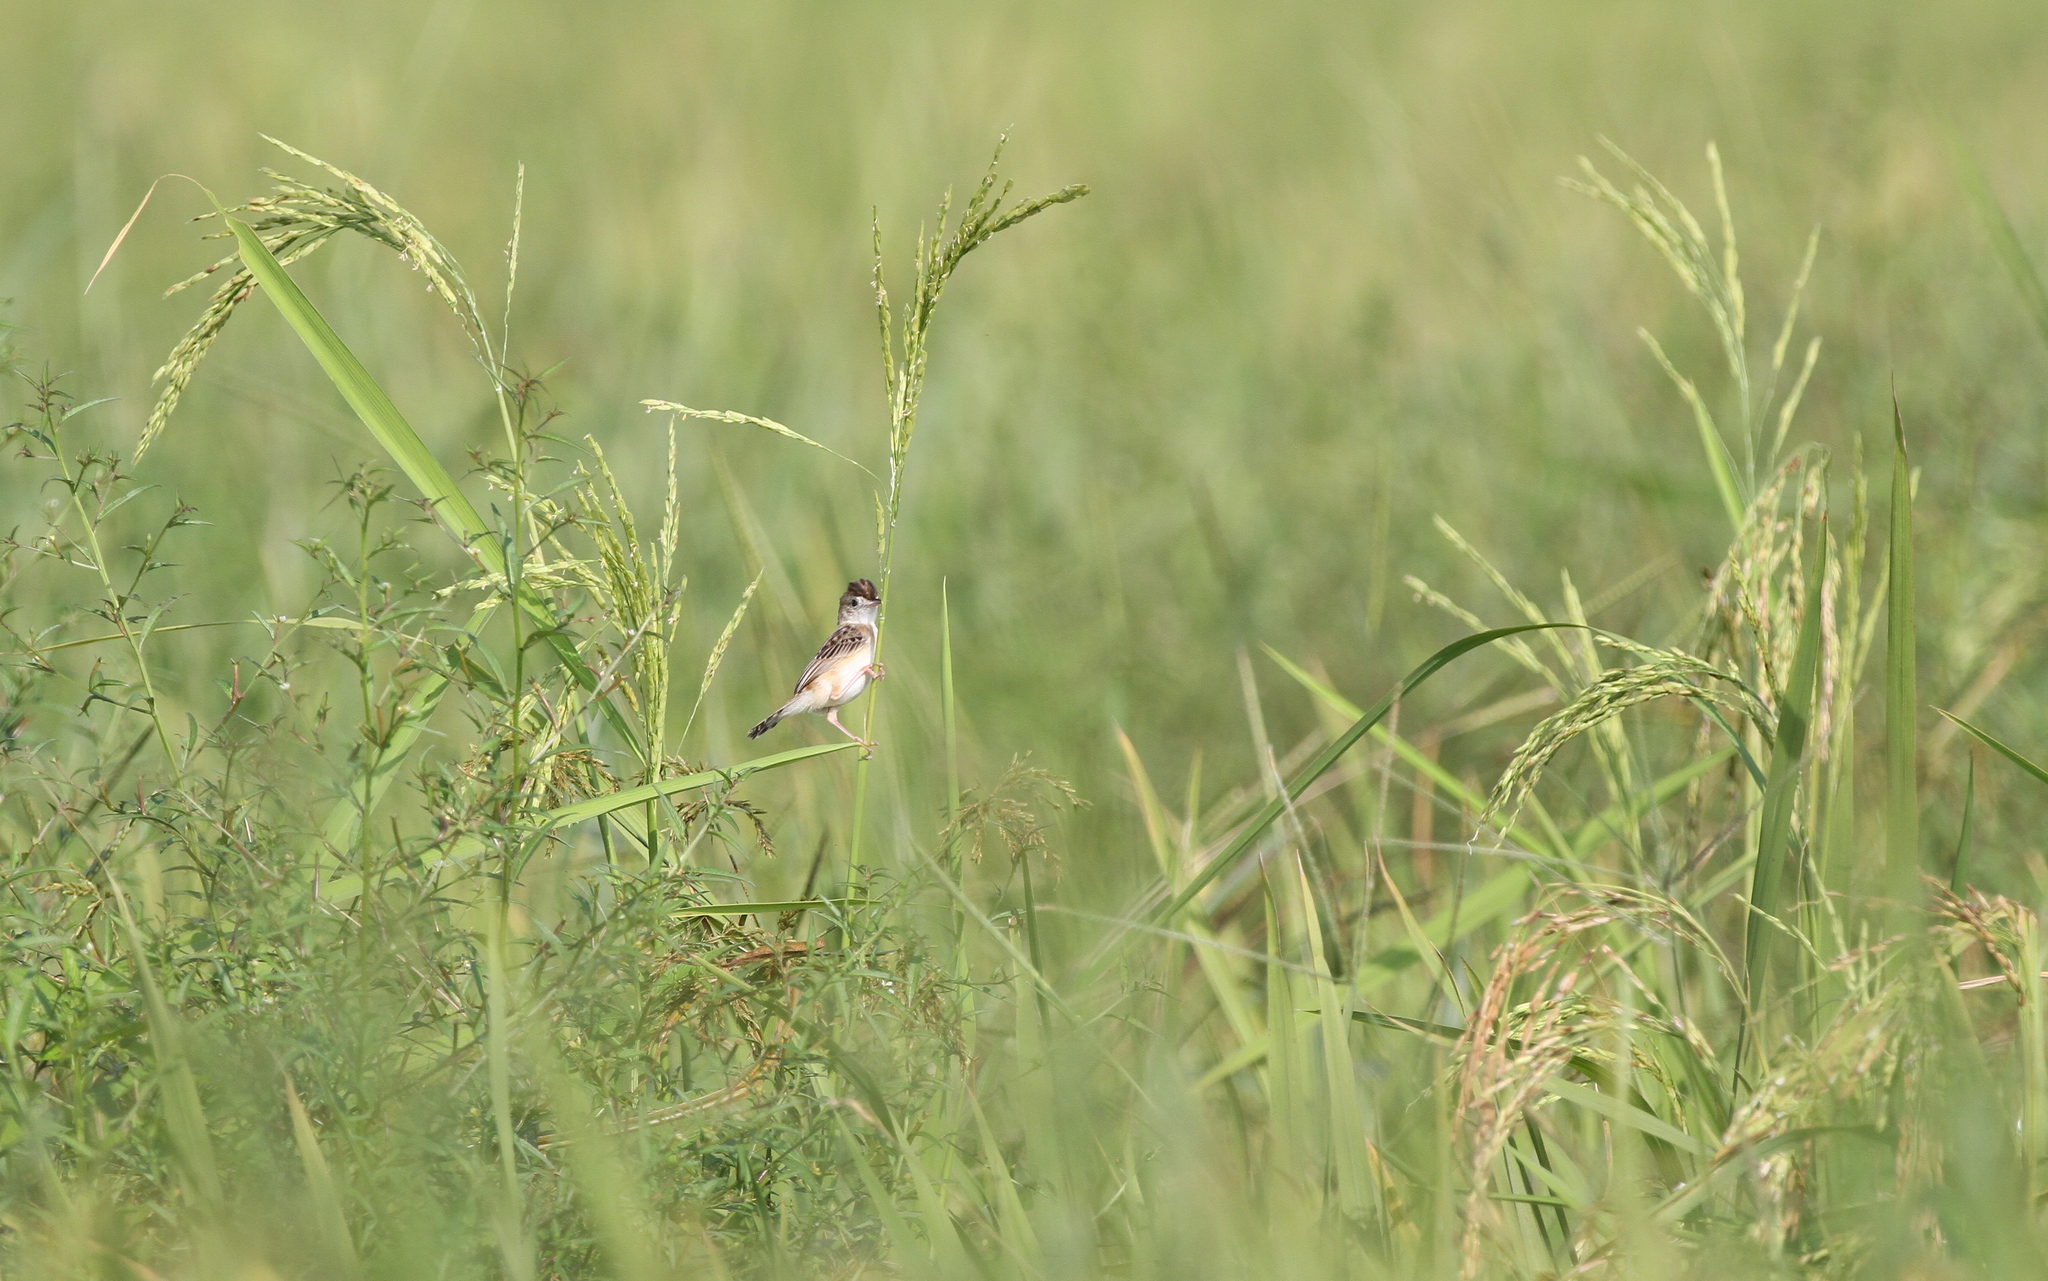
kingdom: Animalia
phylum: Chordata
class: Aves
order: Passeriformes
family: Cisticolidae
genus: Cisticola
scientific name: Cisticola juncidis
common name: Zitting cisticola
